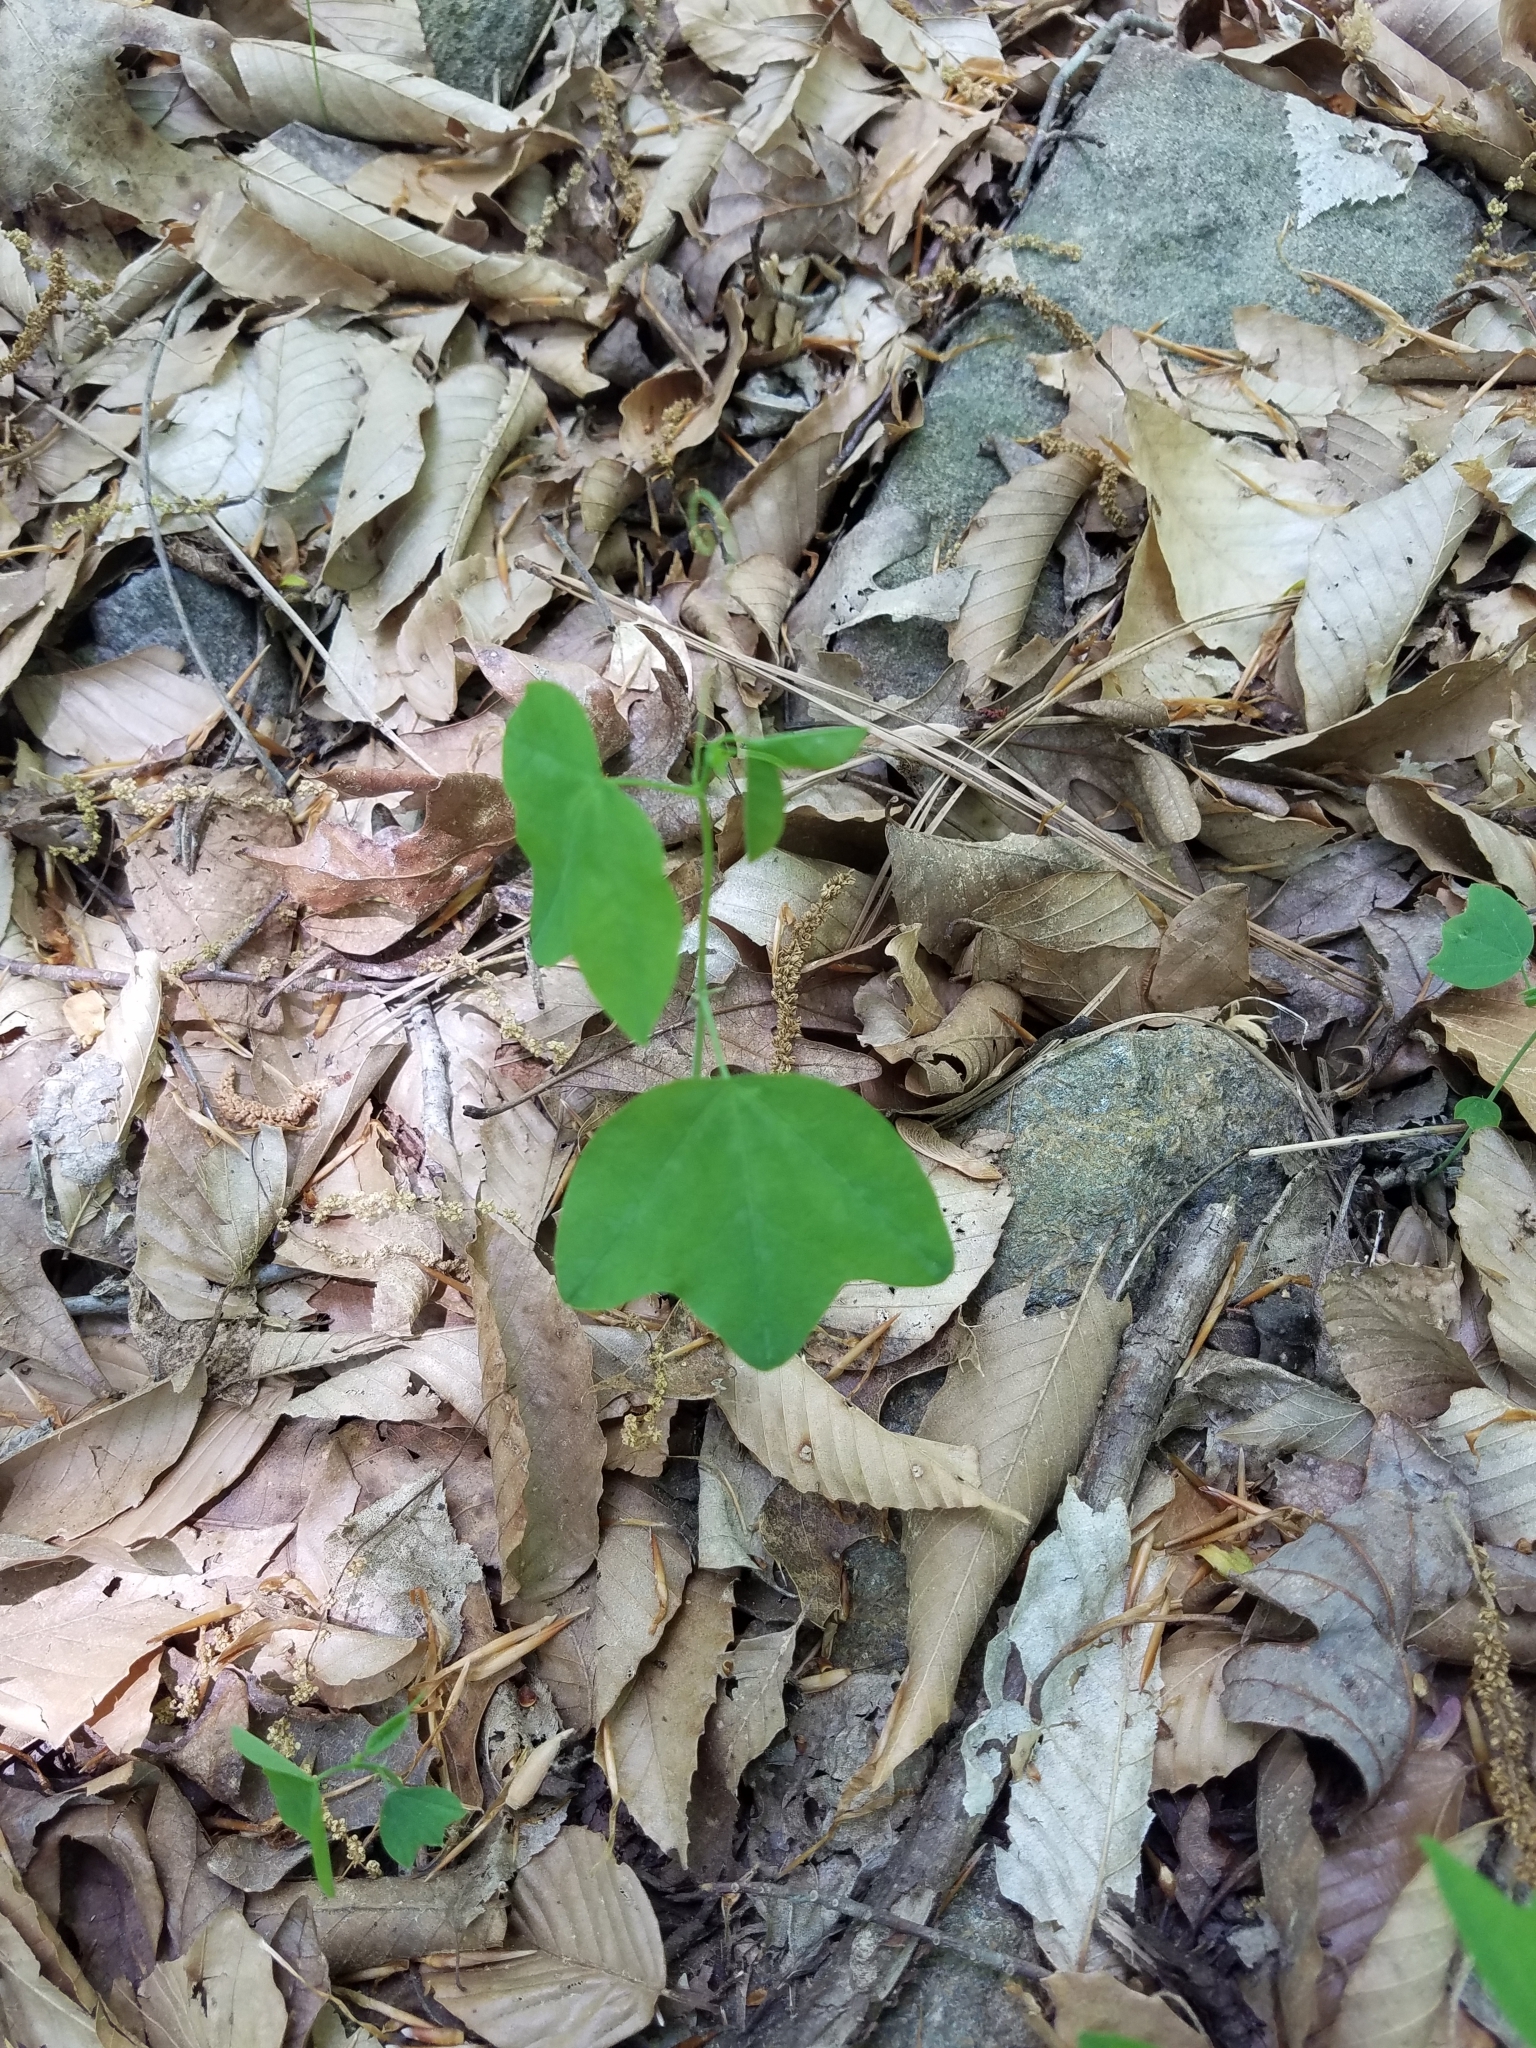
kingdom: Plantae
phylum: Tracheophyta
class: Magnoliopsida
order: Malpighiales
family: Passifloraceae
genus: Passiflora
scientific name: Passiflora lutea
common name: Yellow passionflower
